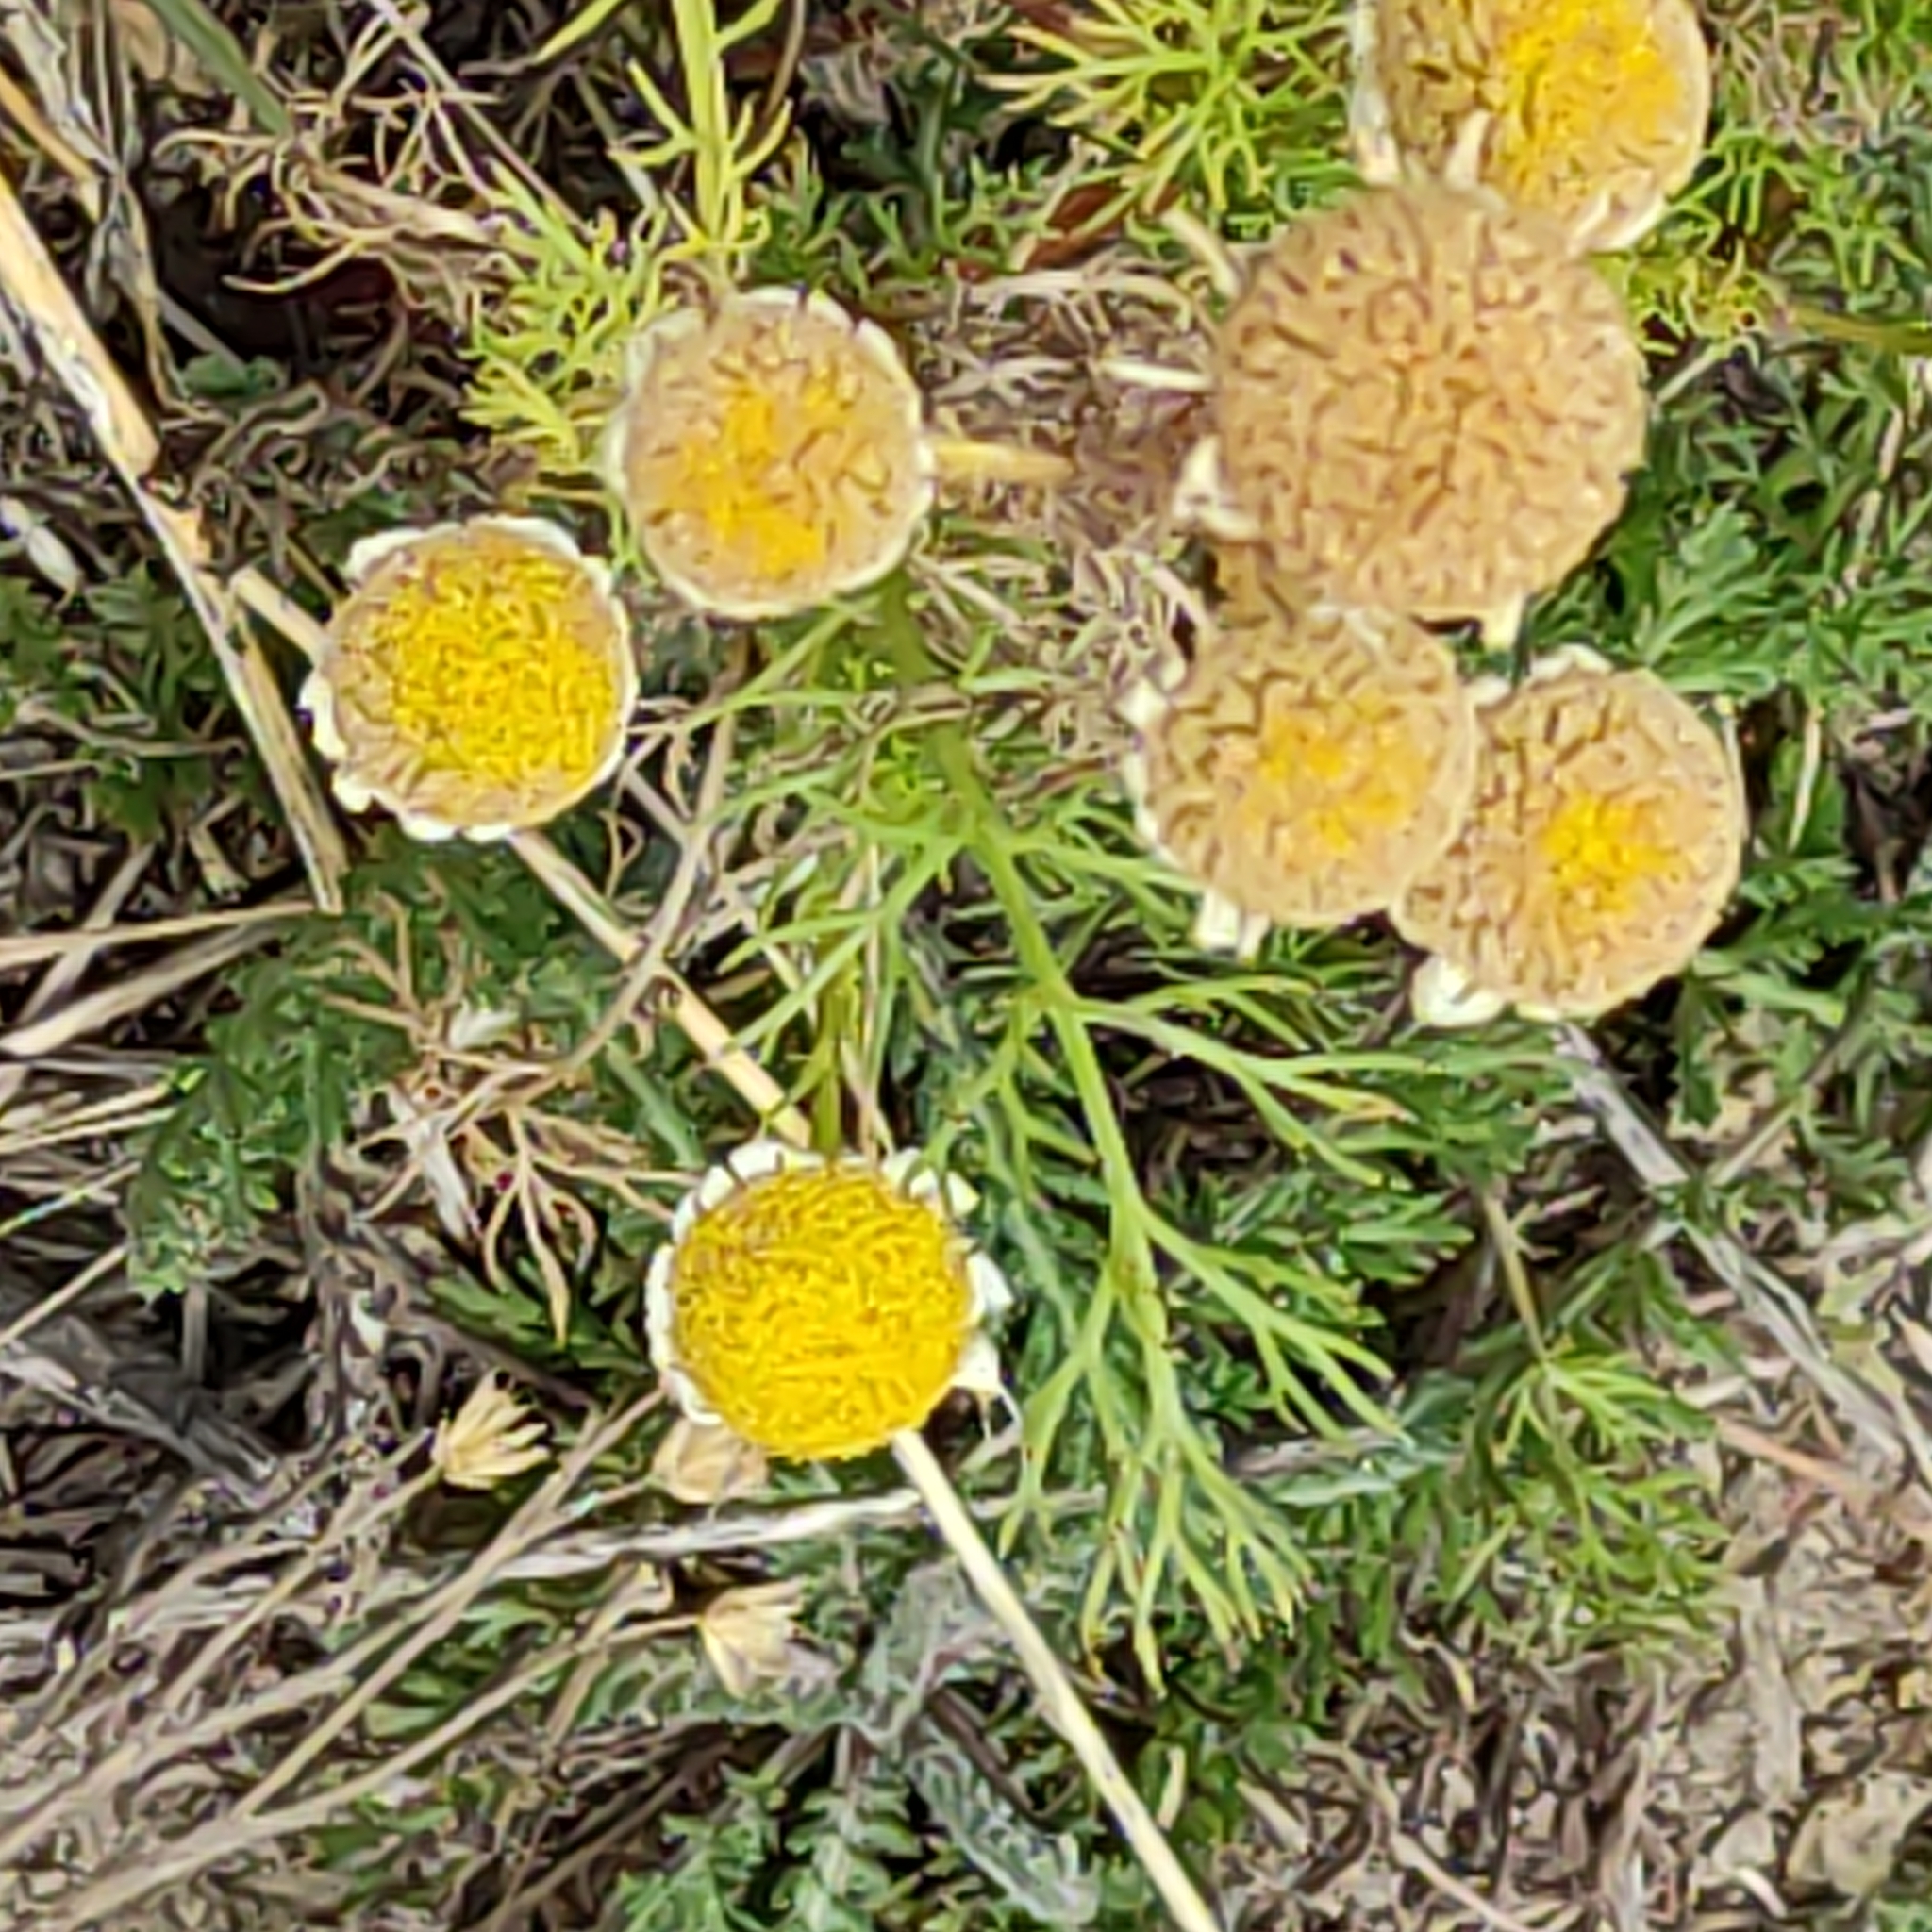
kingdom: Plantae
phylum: Tracheophyta
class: Magnoliopsida
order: Asterales
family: Asteraceae
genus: Matricaria
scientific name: Matricaria discoidea
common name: Disc mayweed
